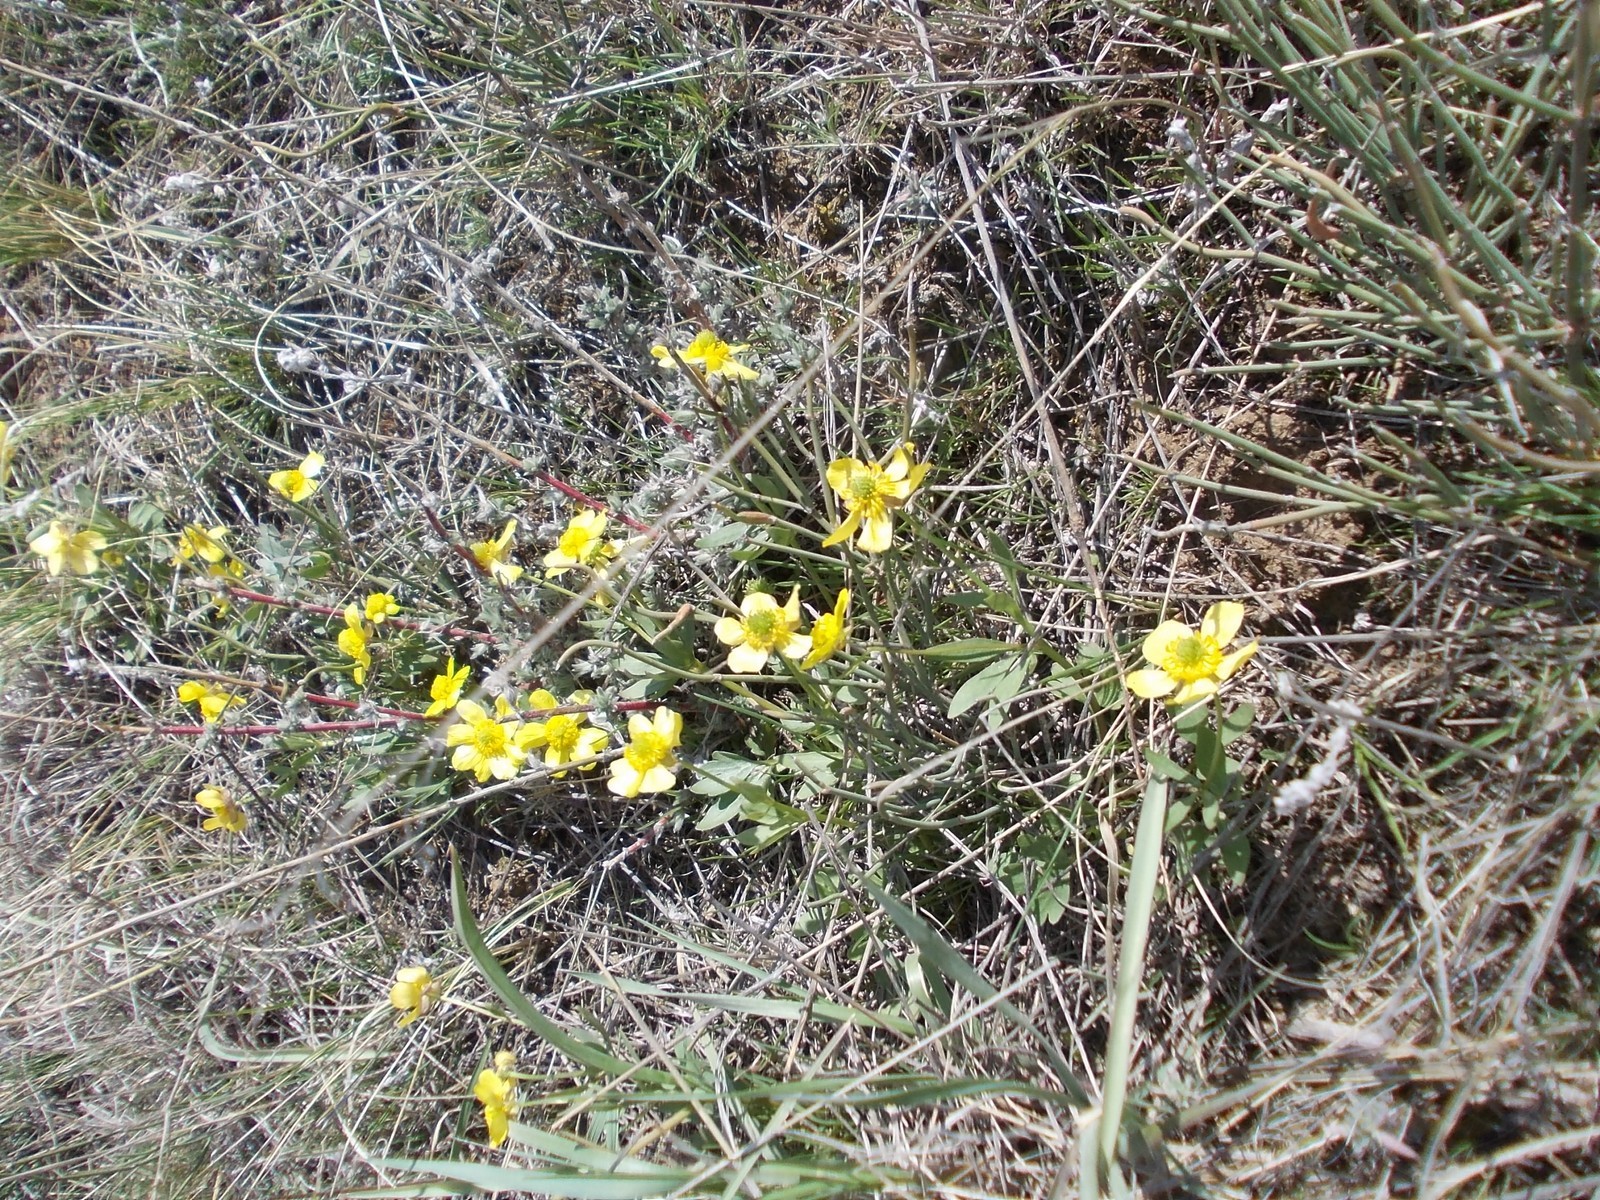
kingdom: Plantae
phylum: Tracheophyta
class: Magnoliopsida
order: Ranunculales
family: Ranunculaceae
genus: Ranunculus
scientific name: Ranunculus polyrhizos
